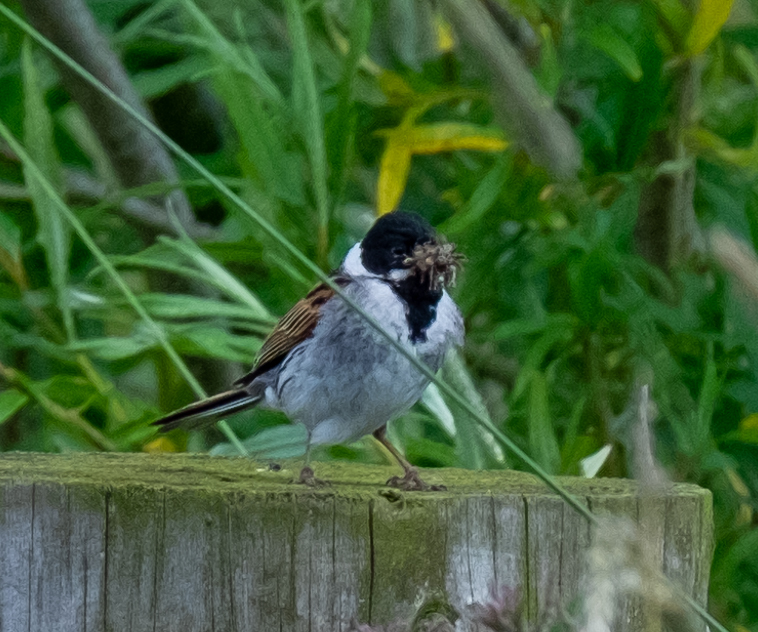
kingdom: Animalia
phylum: Chordata
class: Aves
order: Passeriformes
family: Emberizidae
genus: Emberiza
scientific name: Emberiza schoeniclus
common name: Reed bunting
